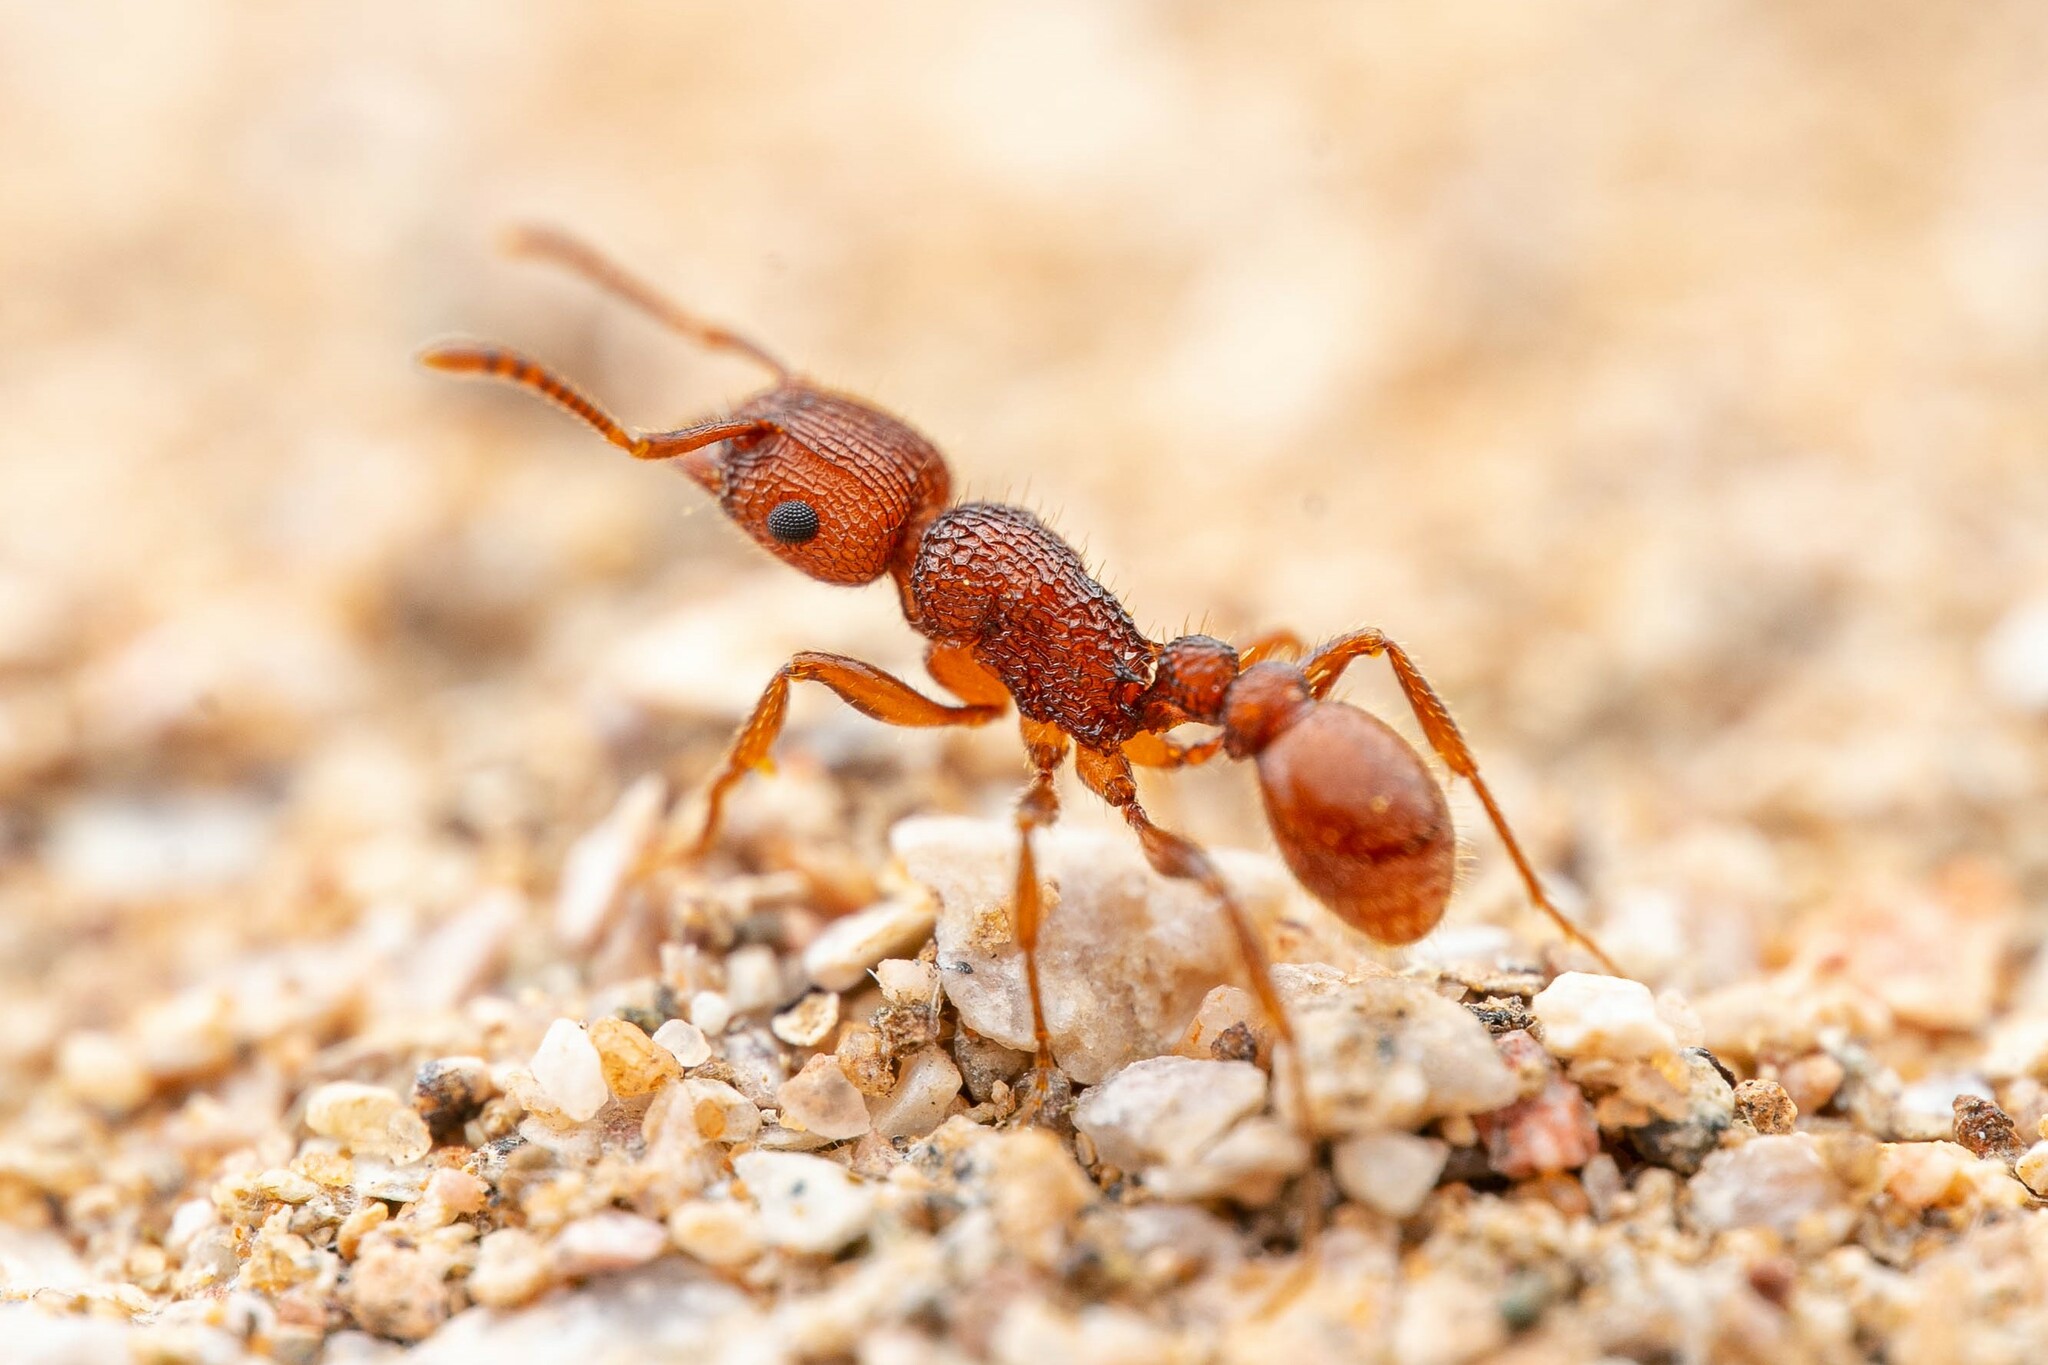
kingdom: Animalia
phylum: Arthropoda
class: Insecta
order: Hymenoptera
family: Formicidae
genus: Tetramorium
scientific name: Tetramorium hispidum
